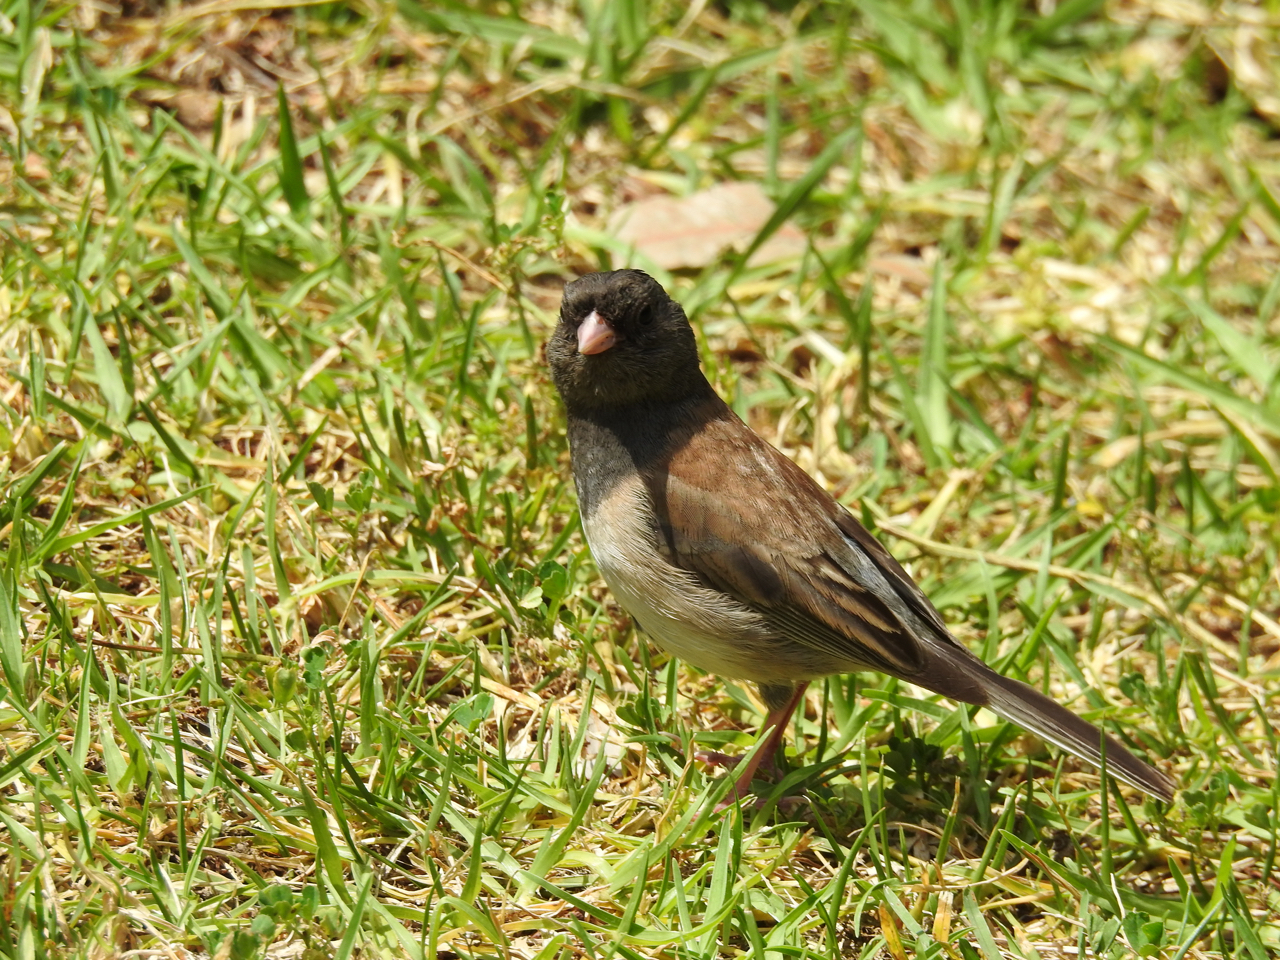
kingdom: Animalia
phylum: Chordata
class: Aves
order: Passeriformes
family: Passerellidae
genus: Junco
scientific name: Junco hyemalis
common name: Dark-eyed junco
